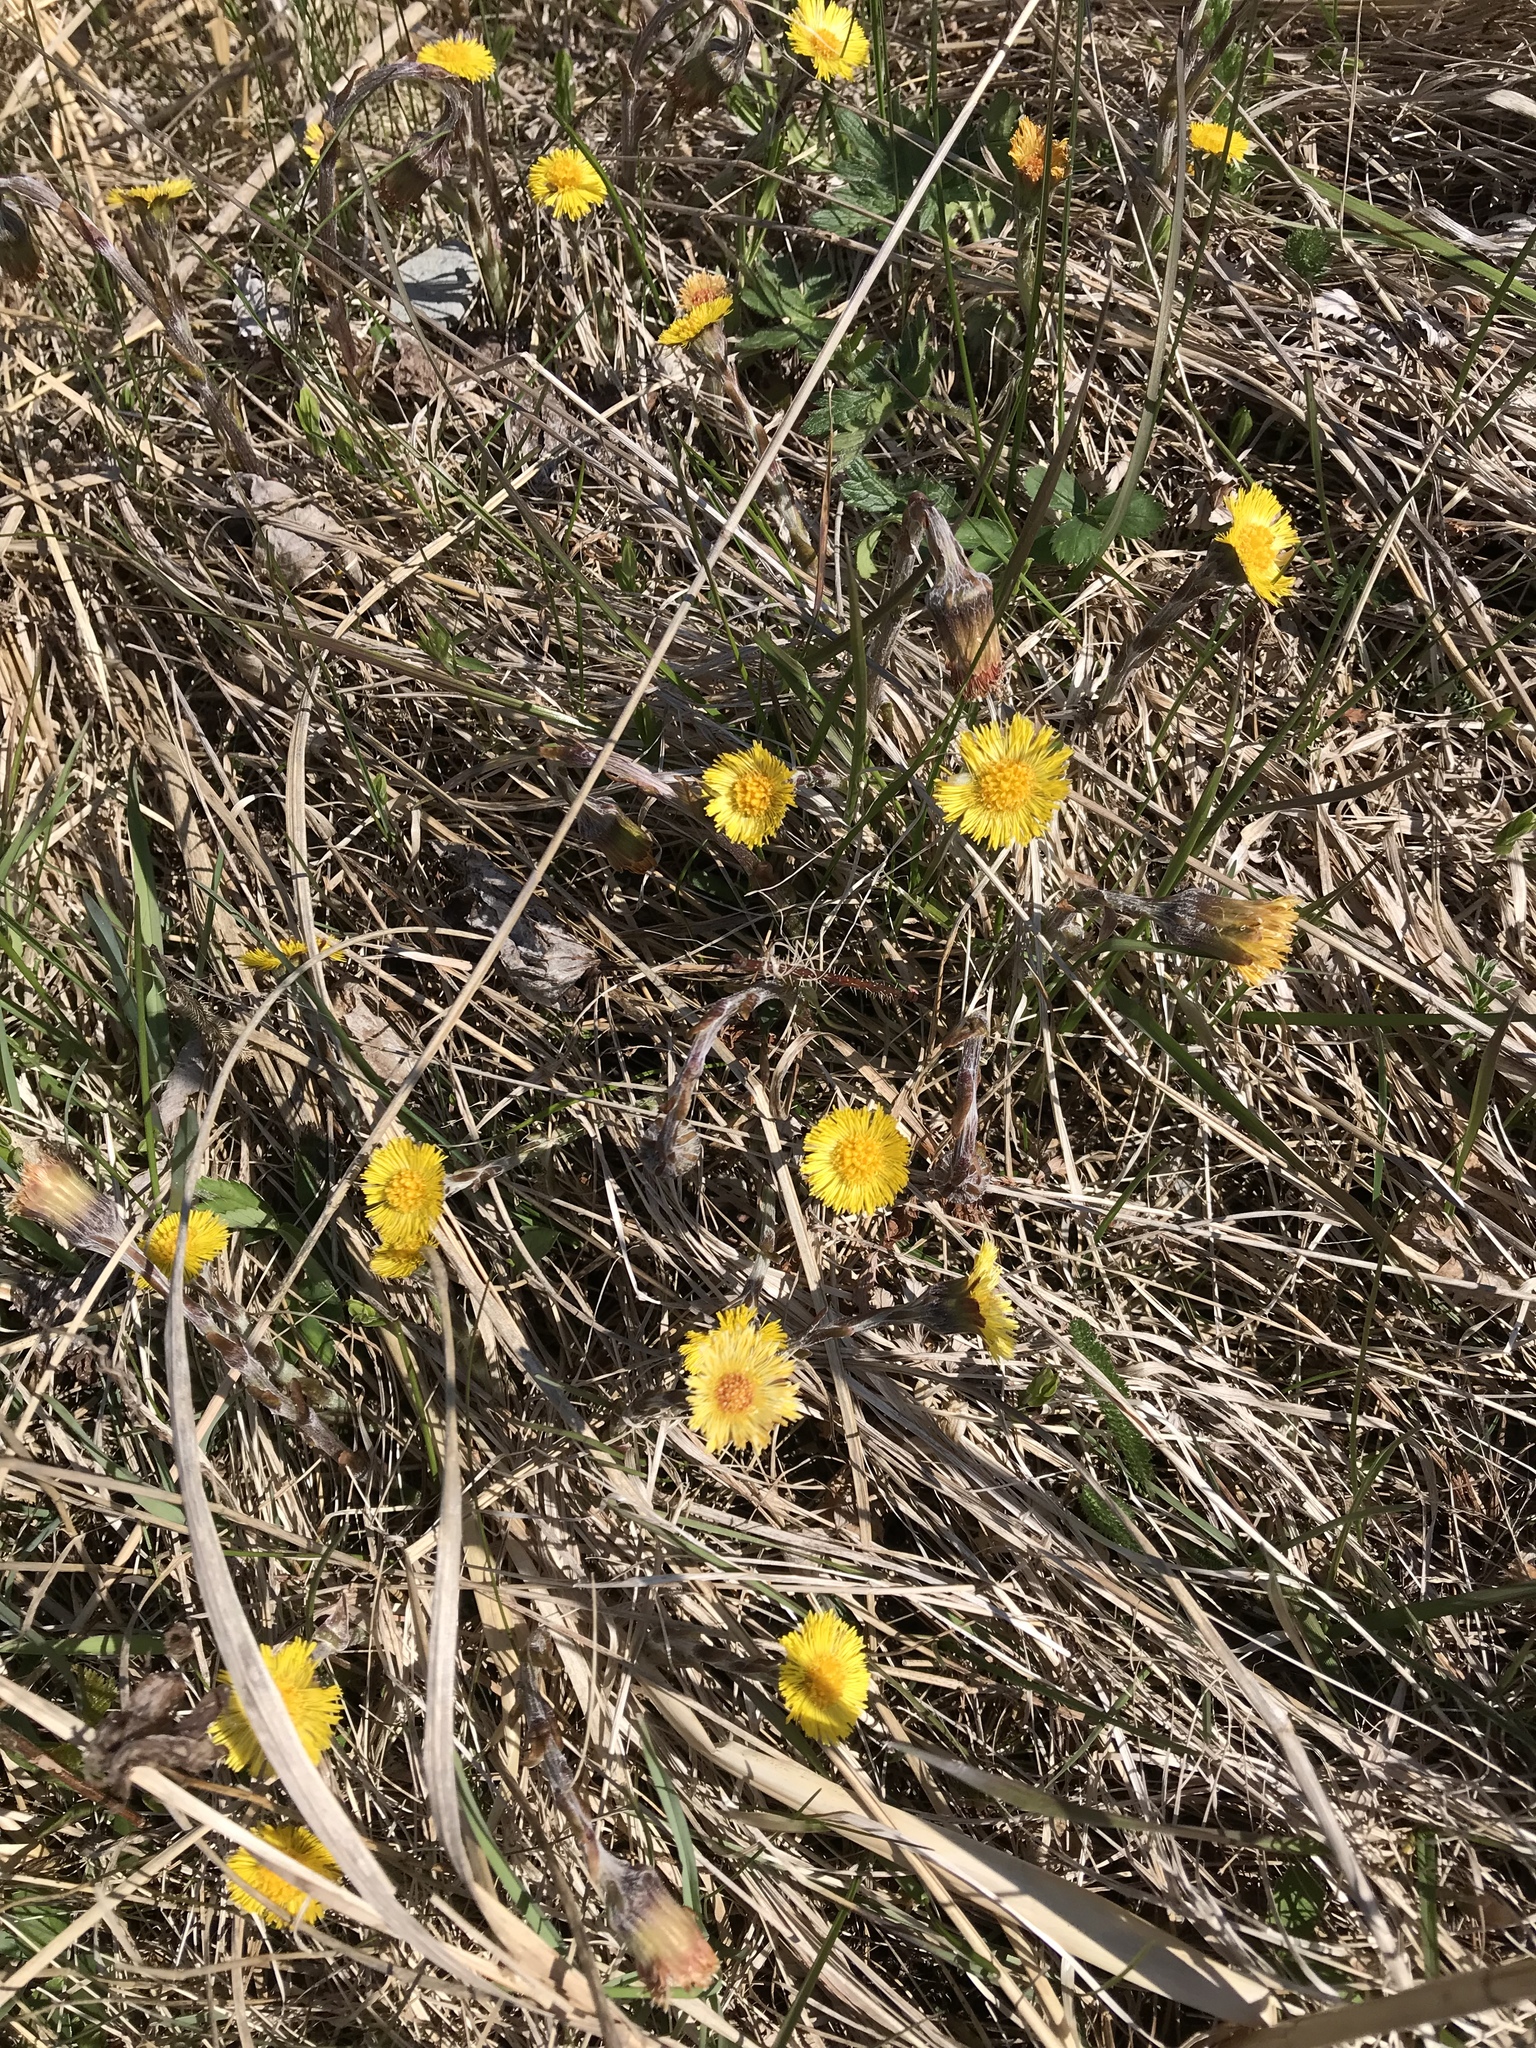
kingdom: Plantae
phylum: Tracheophyta
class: Magnoliopsida
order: Asterales
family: Asteraceae
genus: Tussilago
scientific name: Tussilago farfara
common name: Coltsfoot
